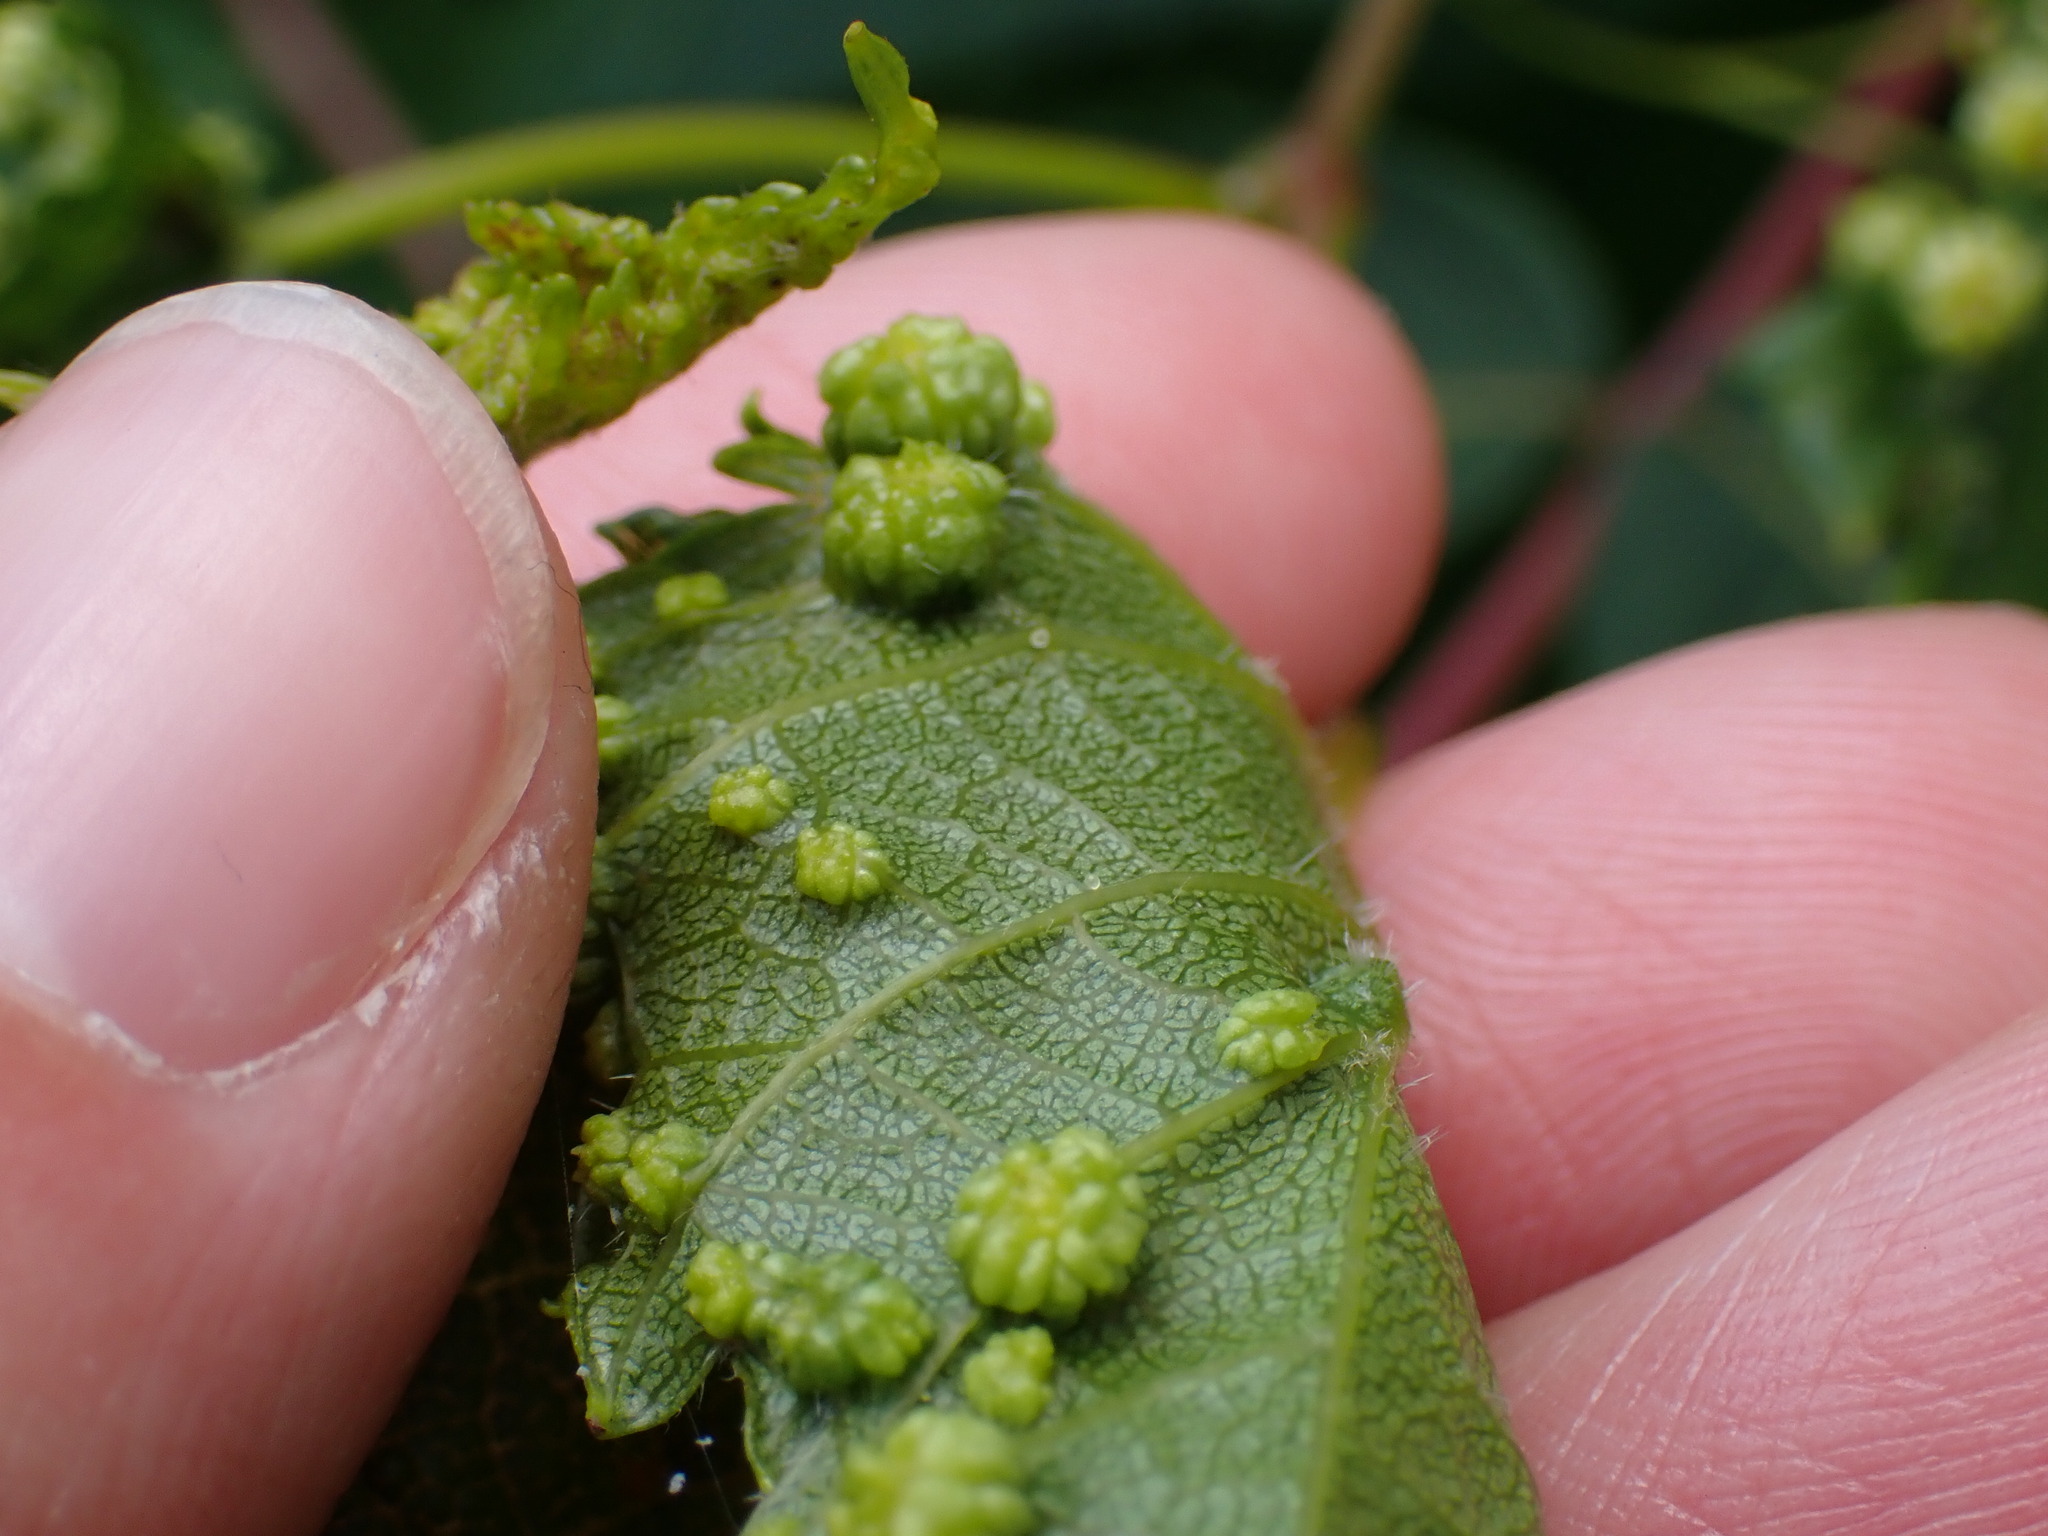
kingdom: Animalia
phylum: Arthropoda
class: Insecta
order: Hemiptera
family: Phylloxeridae
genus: Daktulosphaira
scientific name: Daktulosphaira vitifoliae
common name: Grape phylloxera
